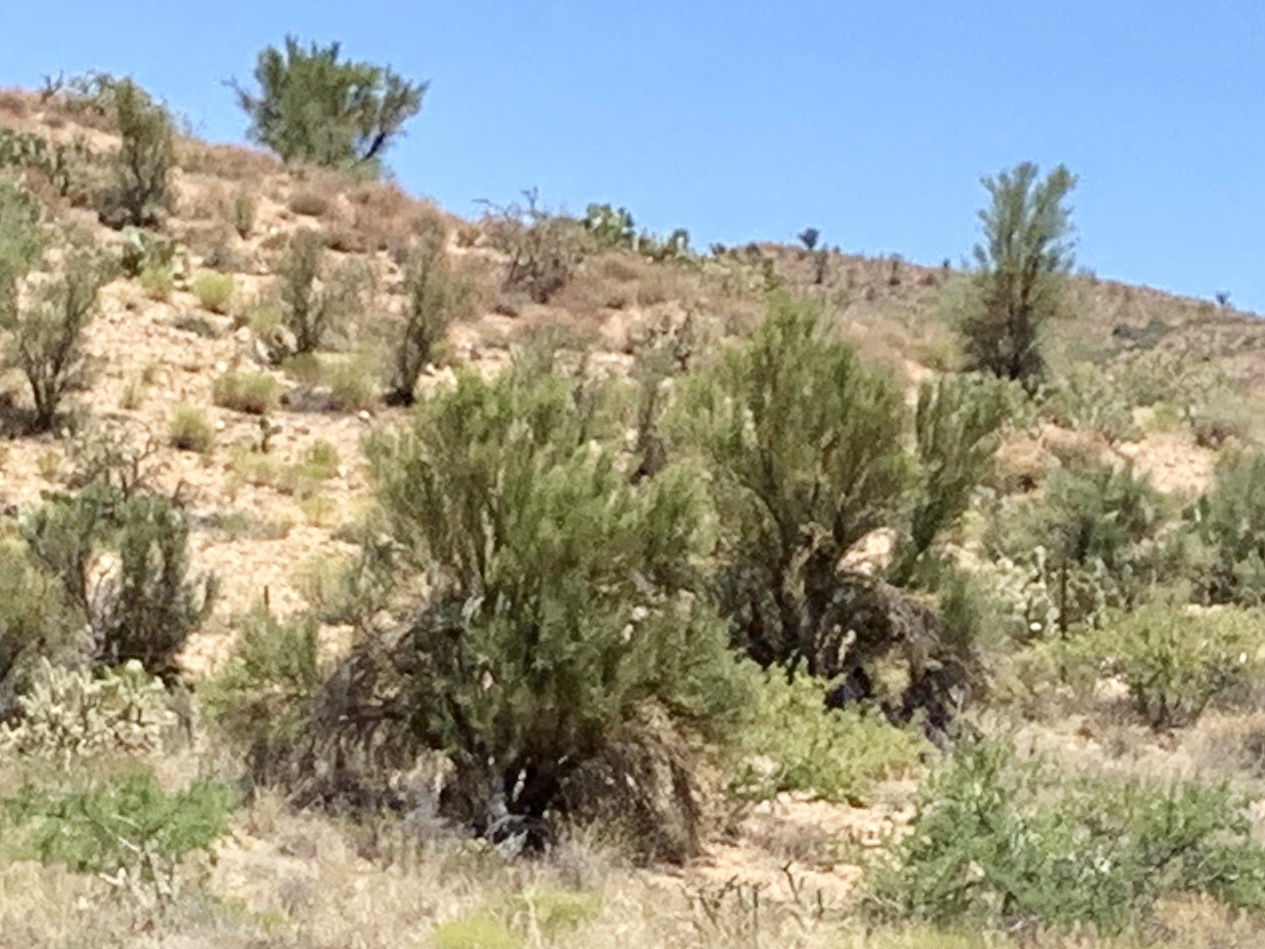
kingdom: Plantae
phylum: Tracheophyta
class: Magnoliopsida
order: Celastrales
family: Celastraceae
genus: Canotia
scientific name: Canotia holacantha
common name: Crucifixion thorns
